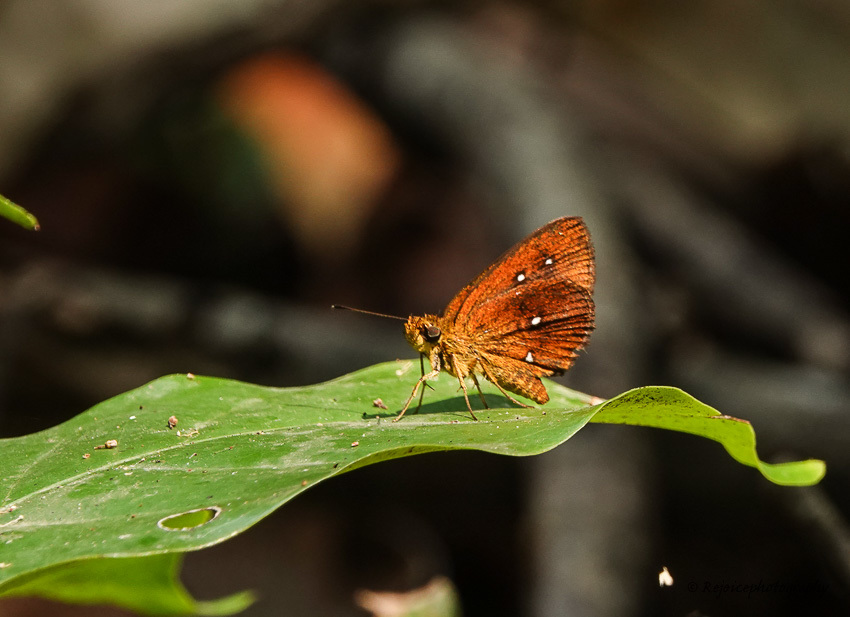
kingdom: Animalia
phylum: Arthropoda
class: Insecta
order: Lepidoptera
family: Hesperiidae
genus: Iambrix
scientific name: Iambrix salsala
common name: Chestnut bob
